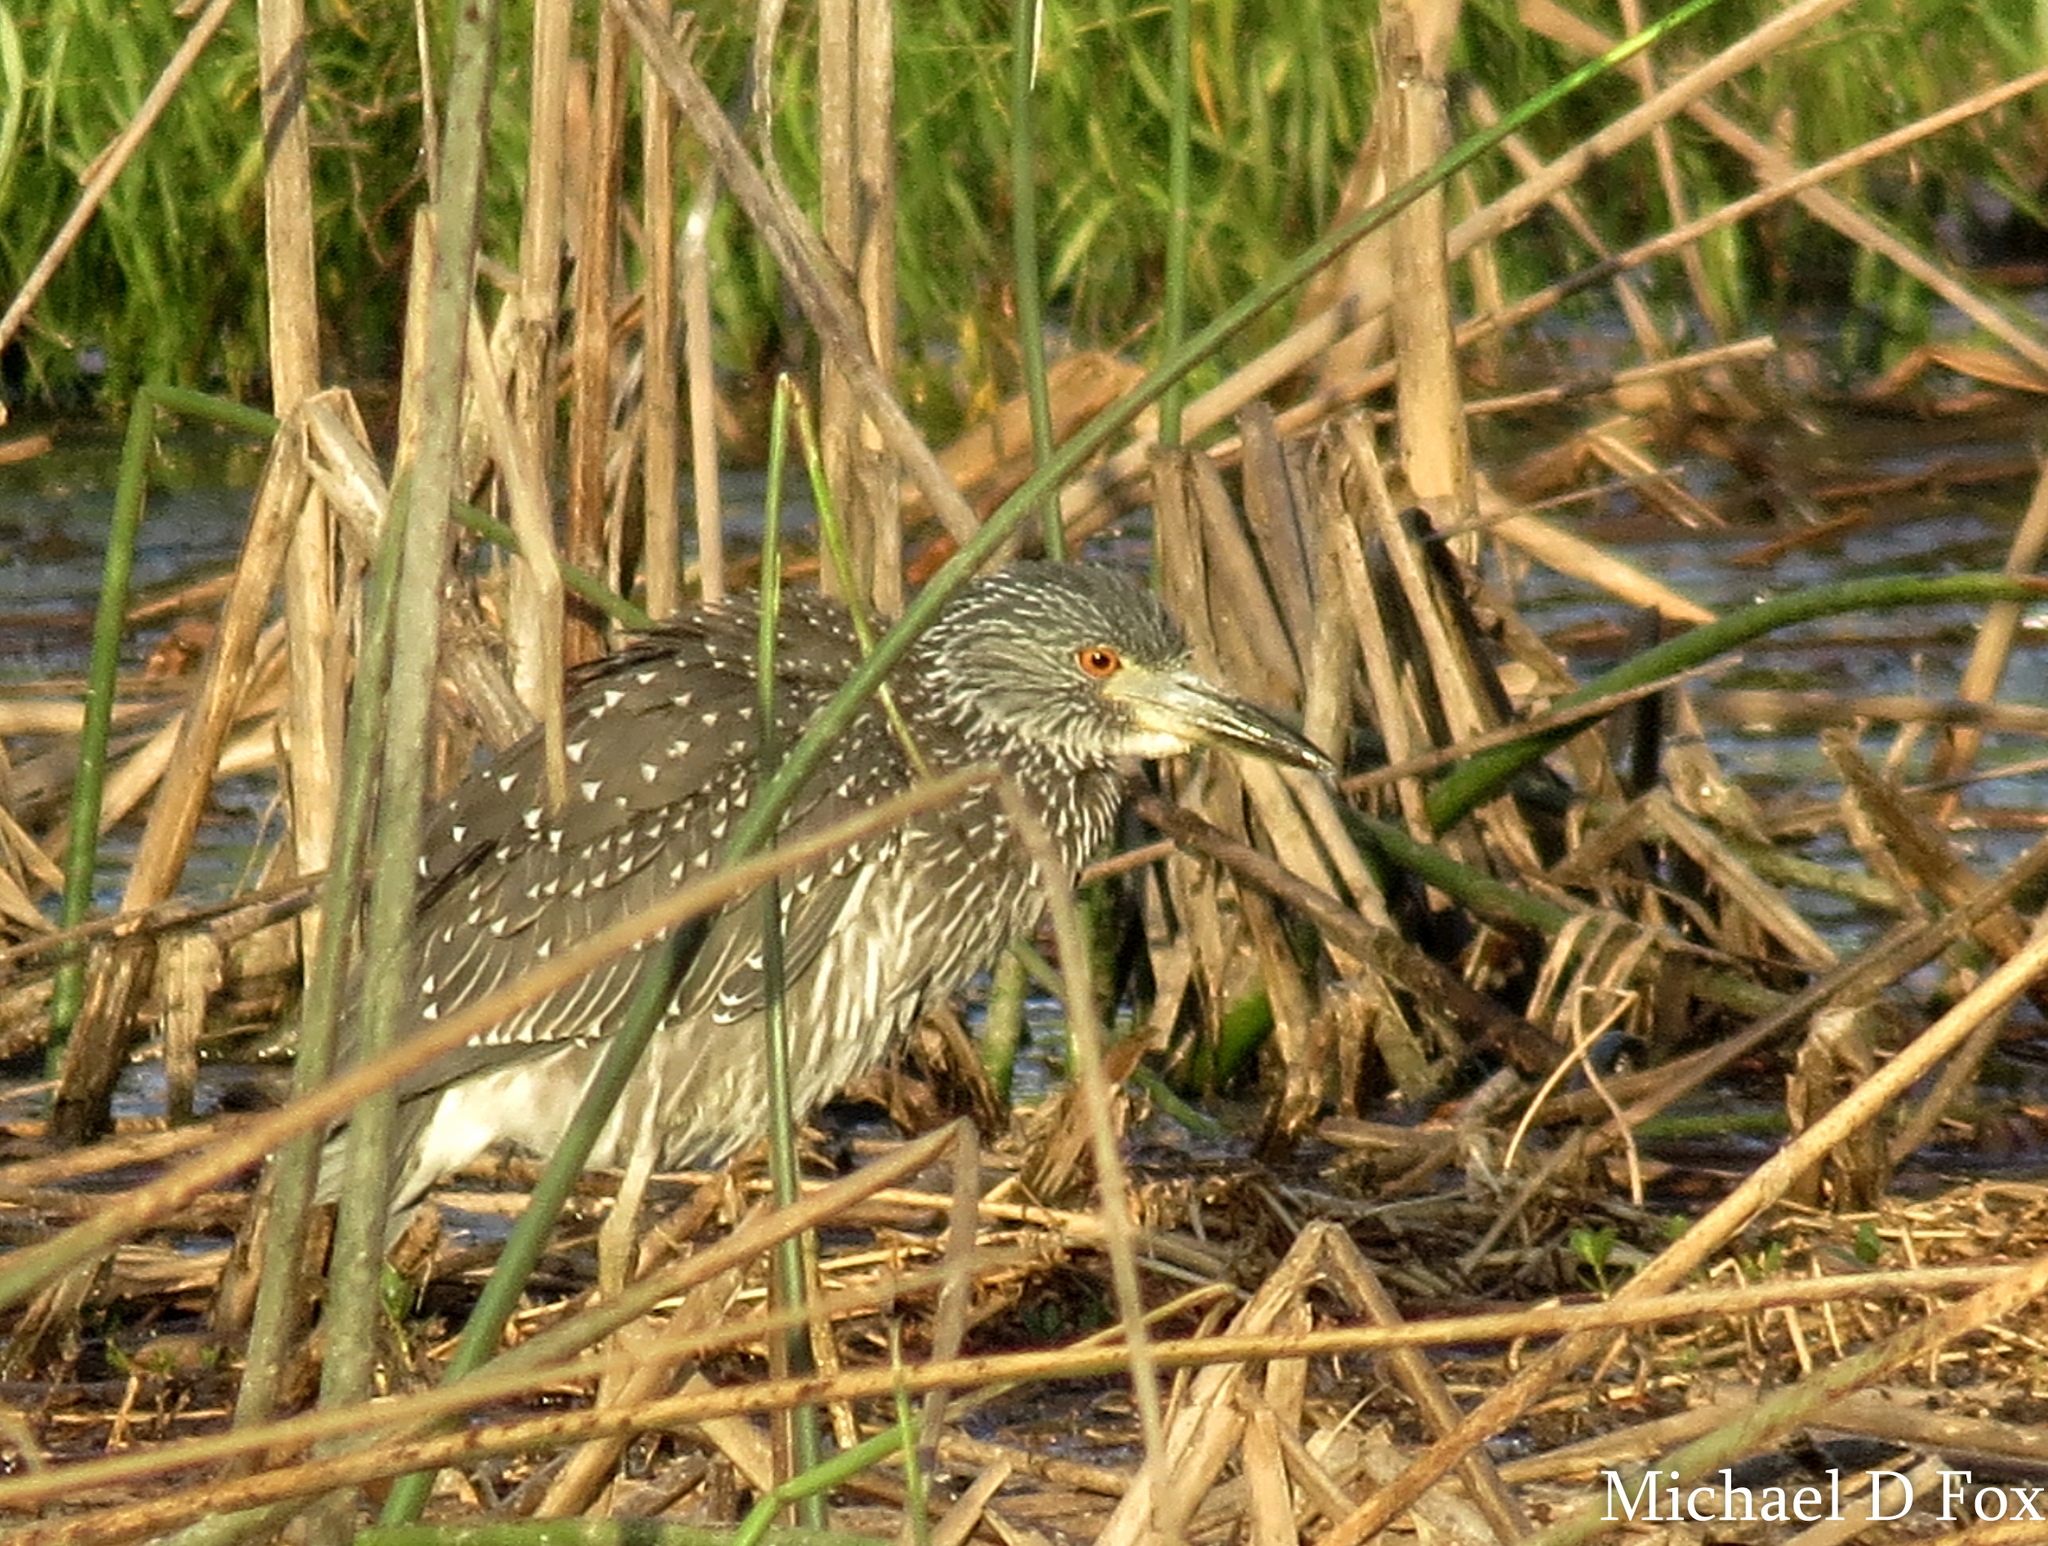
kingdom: Animalia
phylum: Chordata
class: Aves
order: Pelecaniformes
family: Ardeidae
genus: Nyctanassa
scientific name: Nyctanassa violacea
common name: Yellow-crowned night heron
